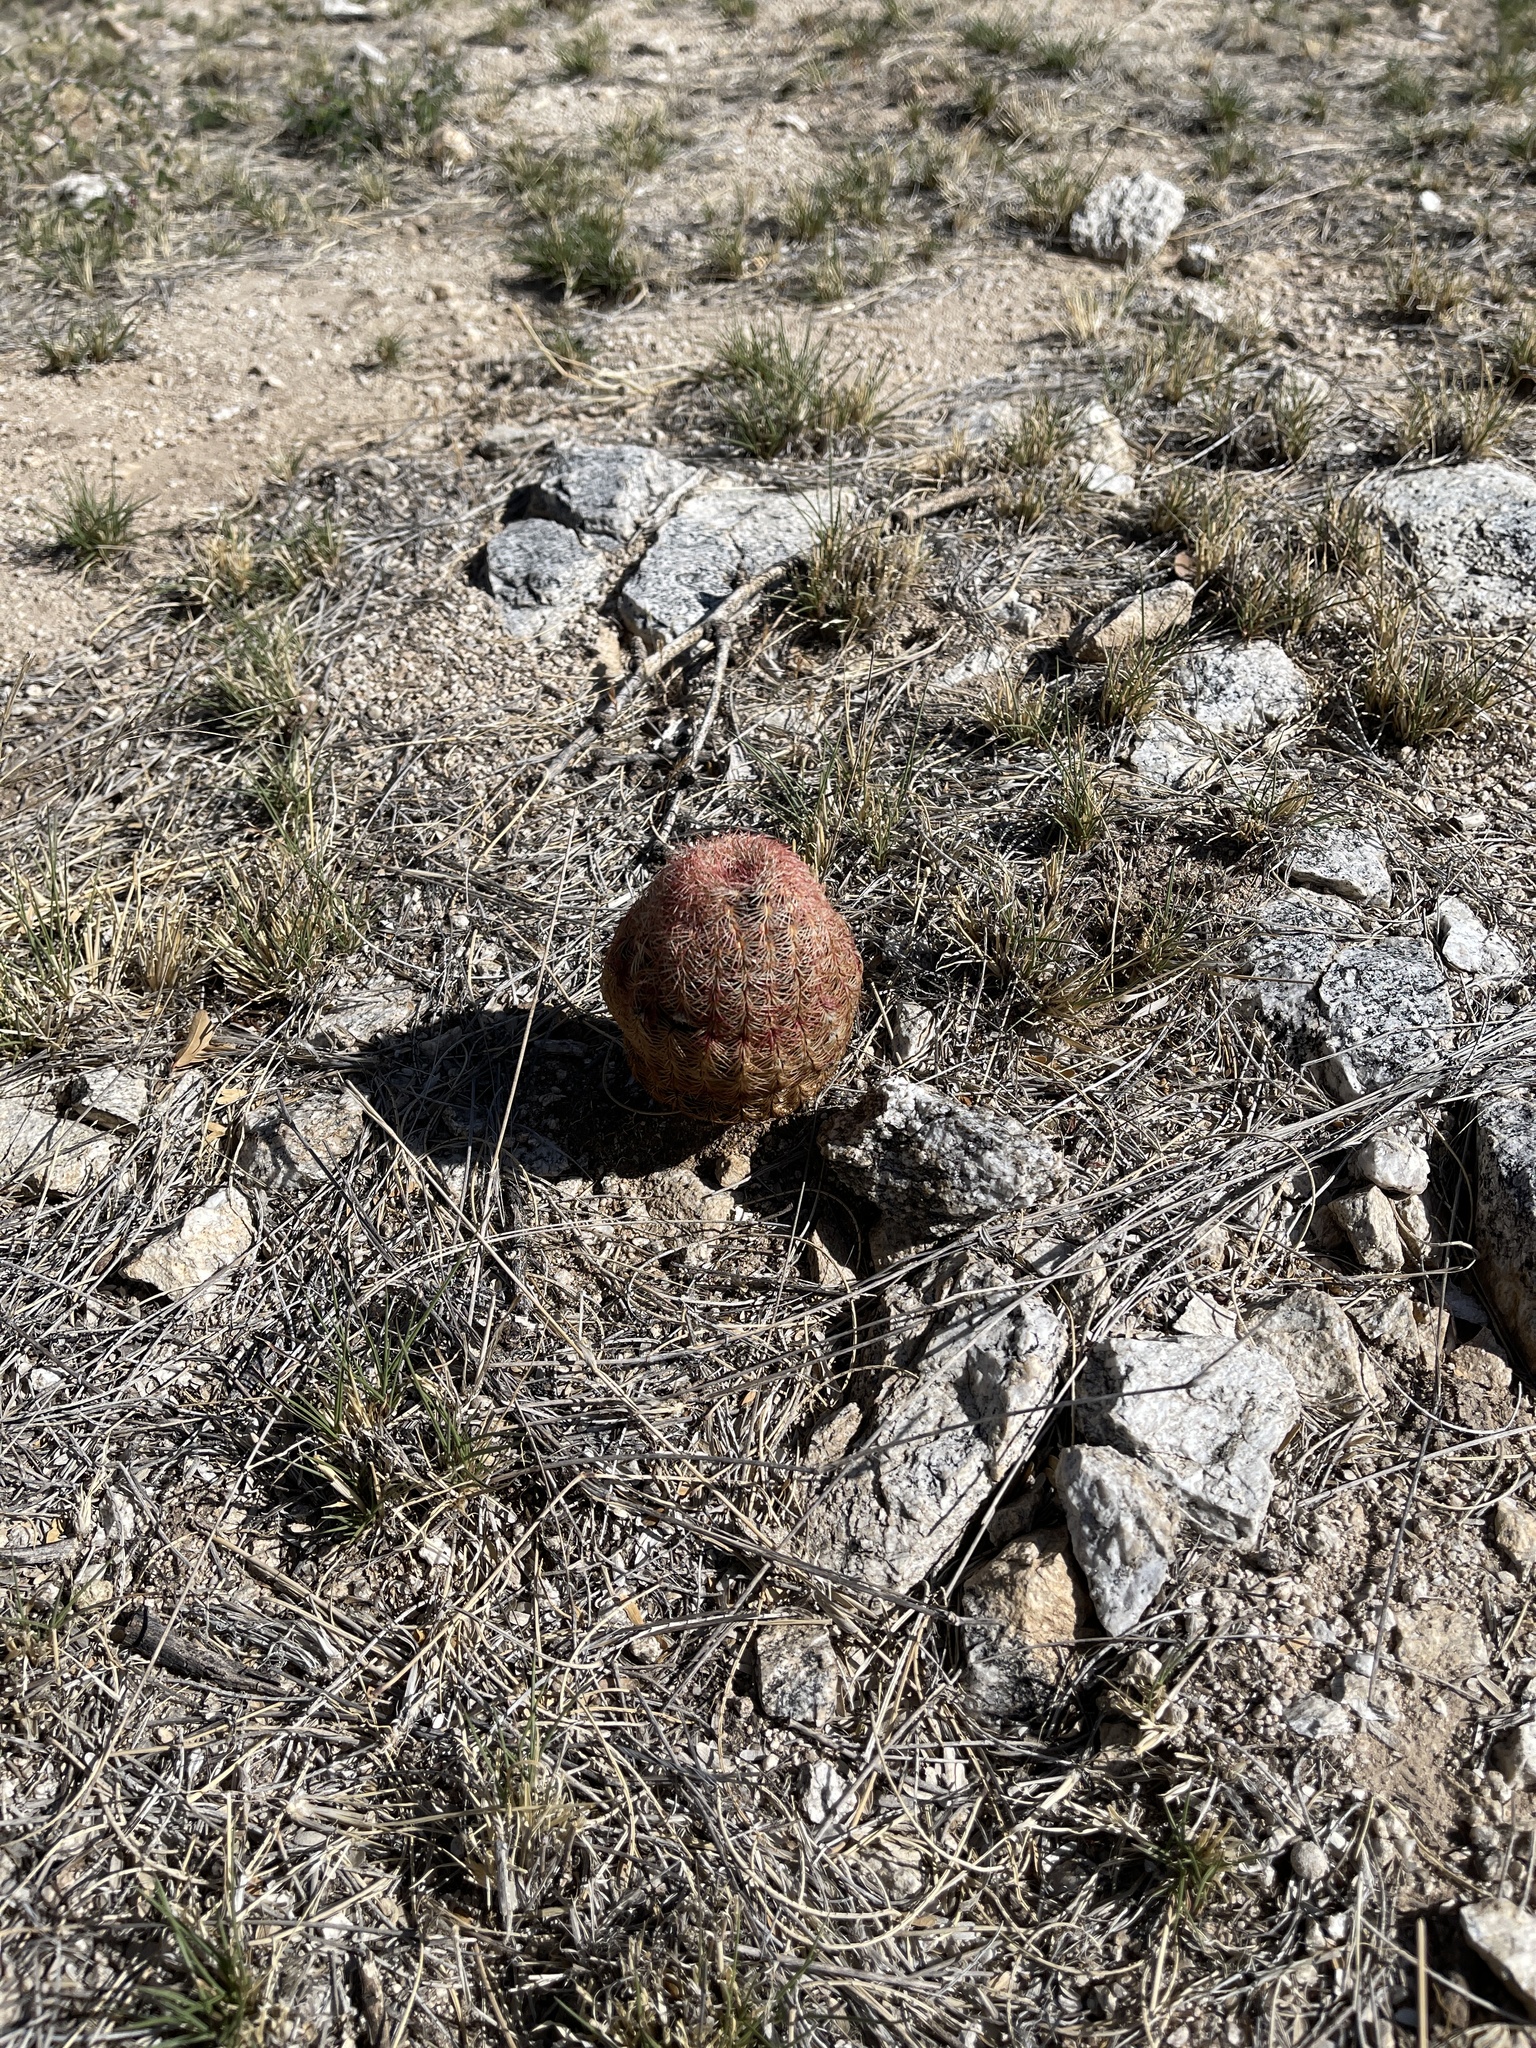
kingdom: Plantae
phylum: Tracheophyta
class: Magnoliopsida
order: Caryophyllales
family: Cactaceae
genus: Echinocereus
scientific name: Echinocereus rigidissimus
